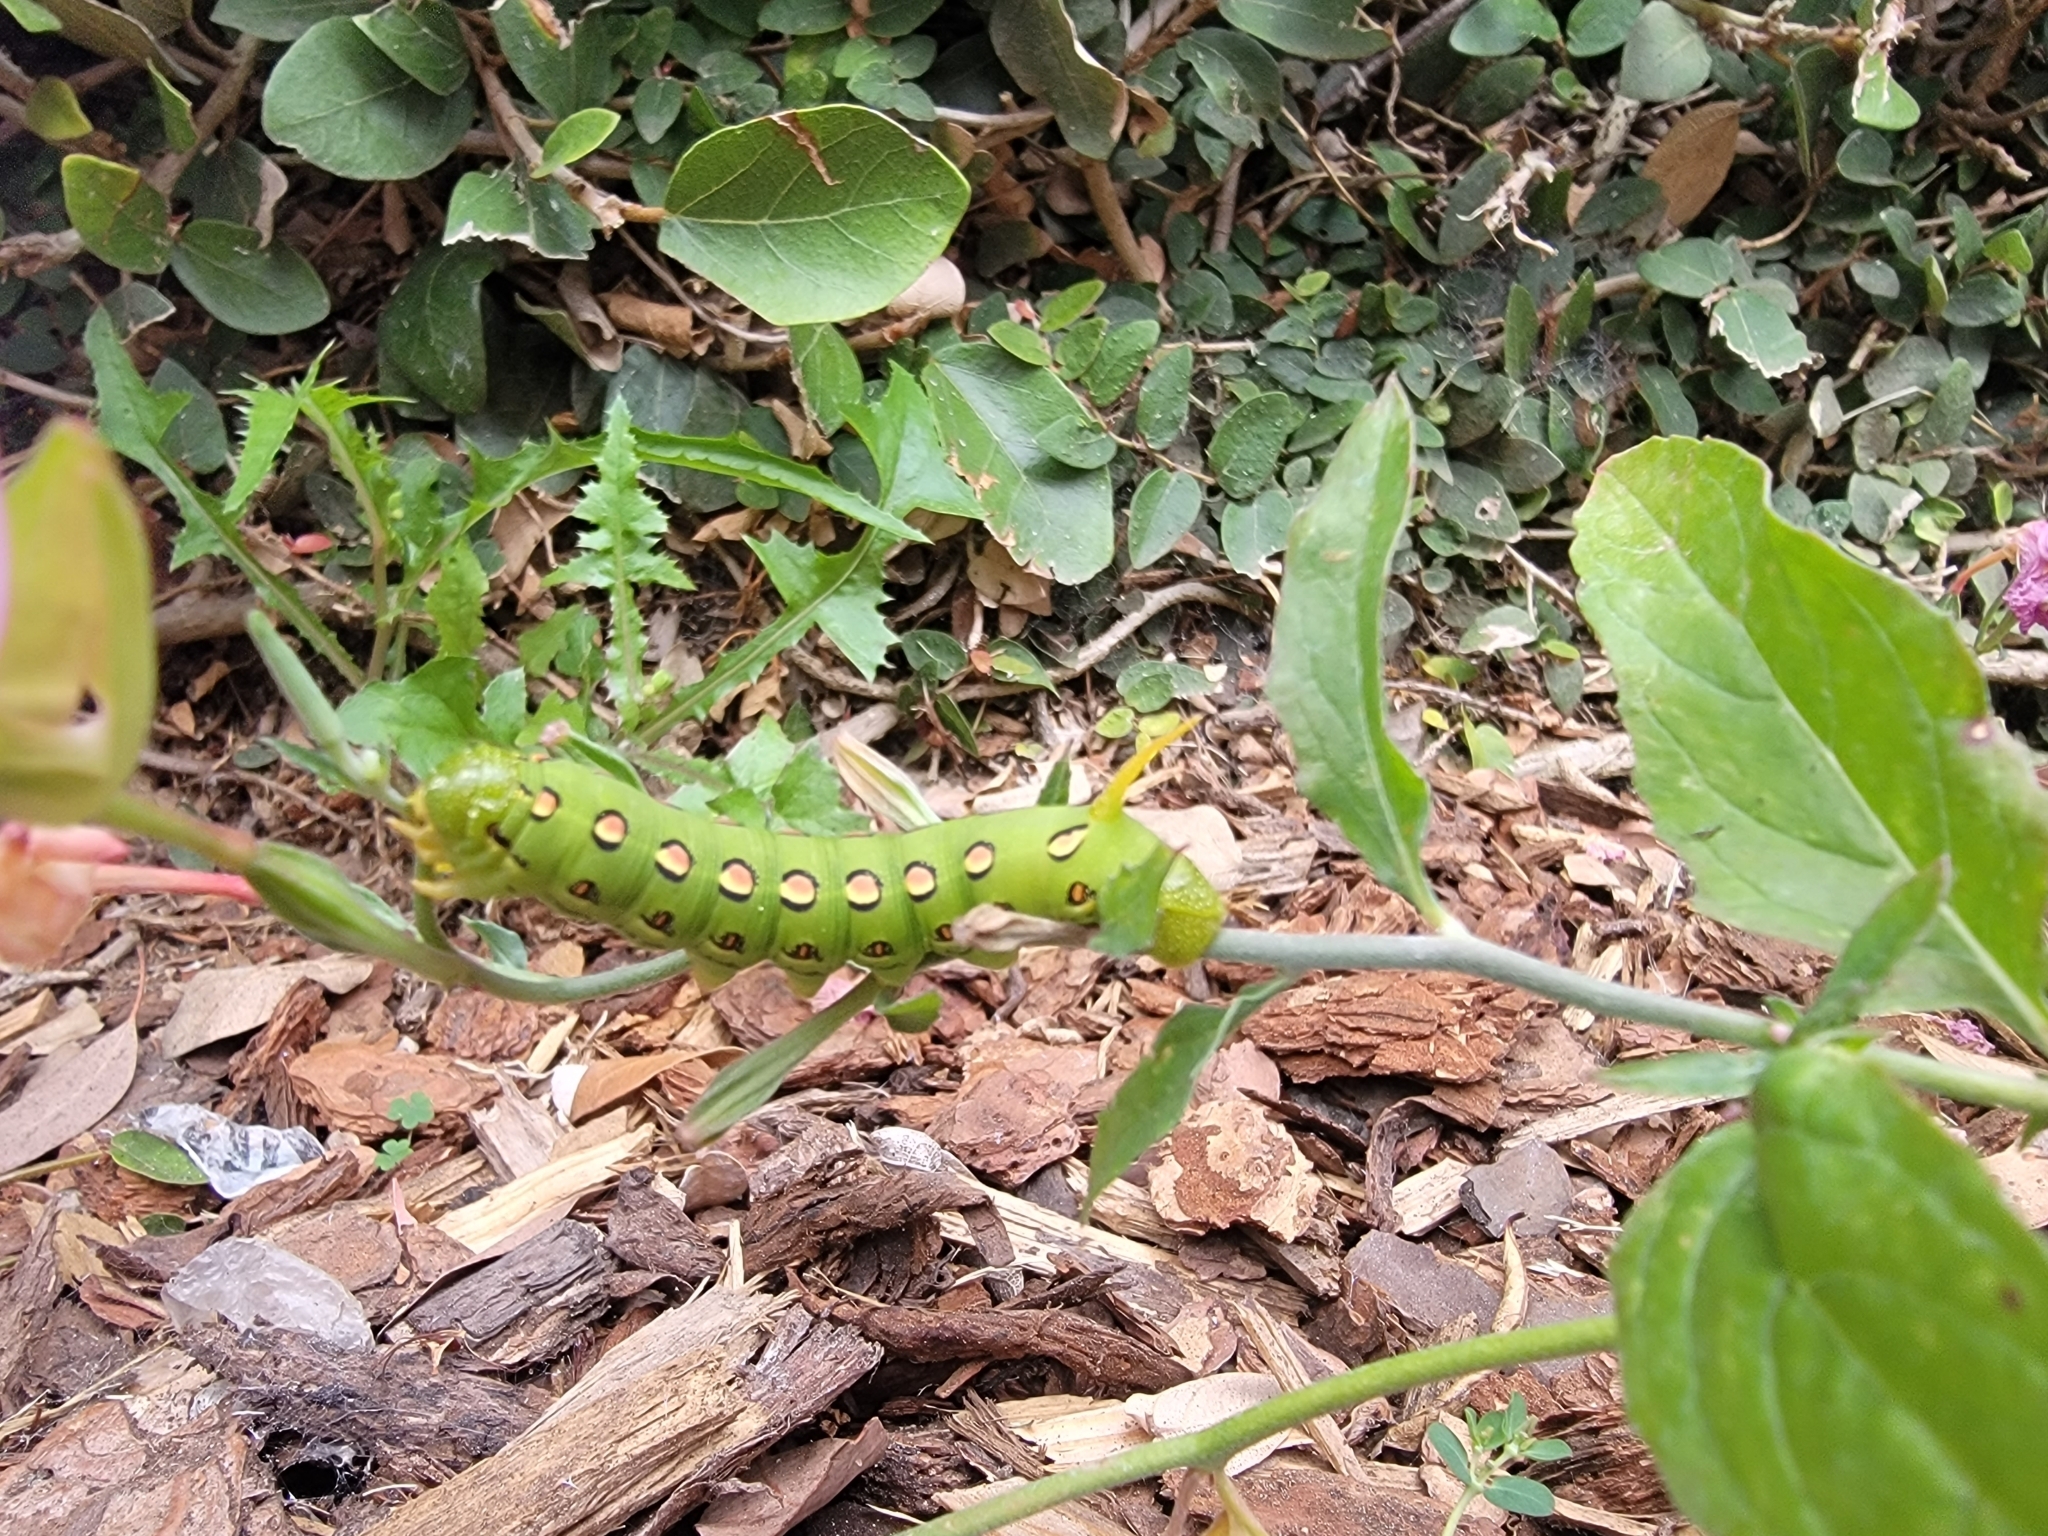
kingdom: Animalia
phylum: Arthropoda
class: Insecta
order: Lepidoptera
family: Sphingidae
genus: Hyles
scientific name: Hyles lineata
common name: White-lined sphinx
